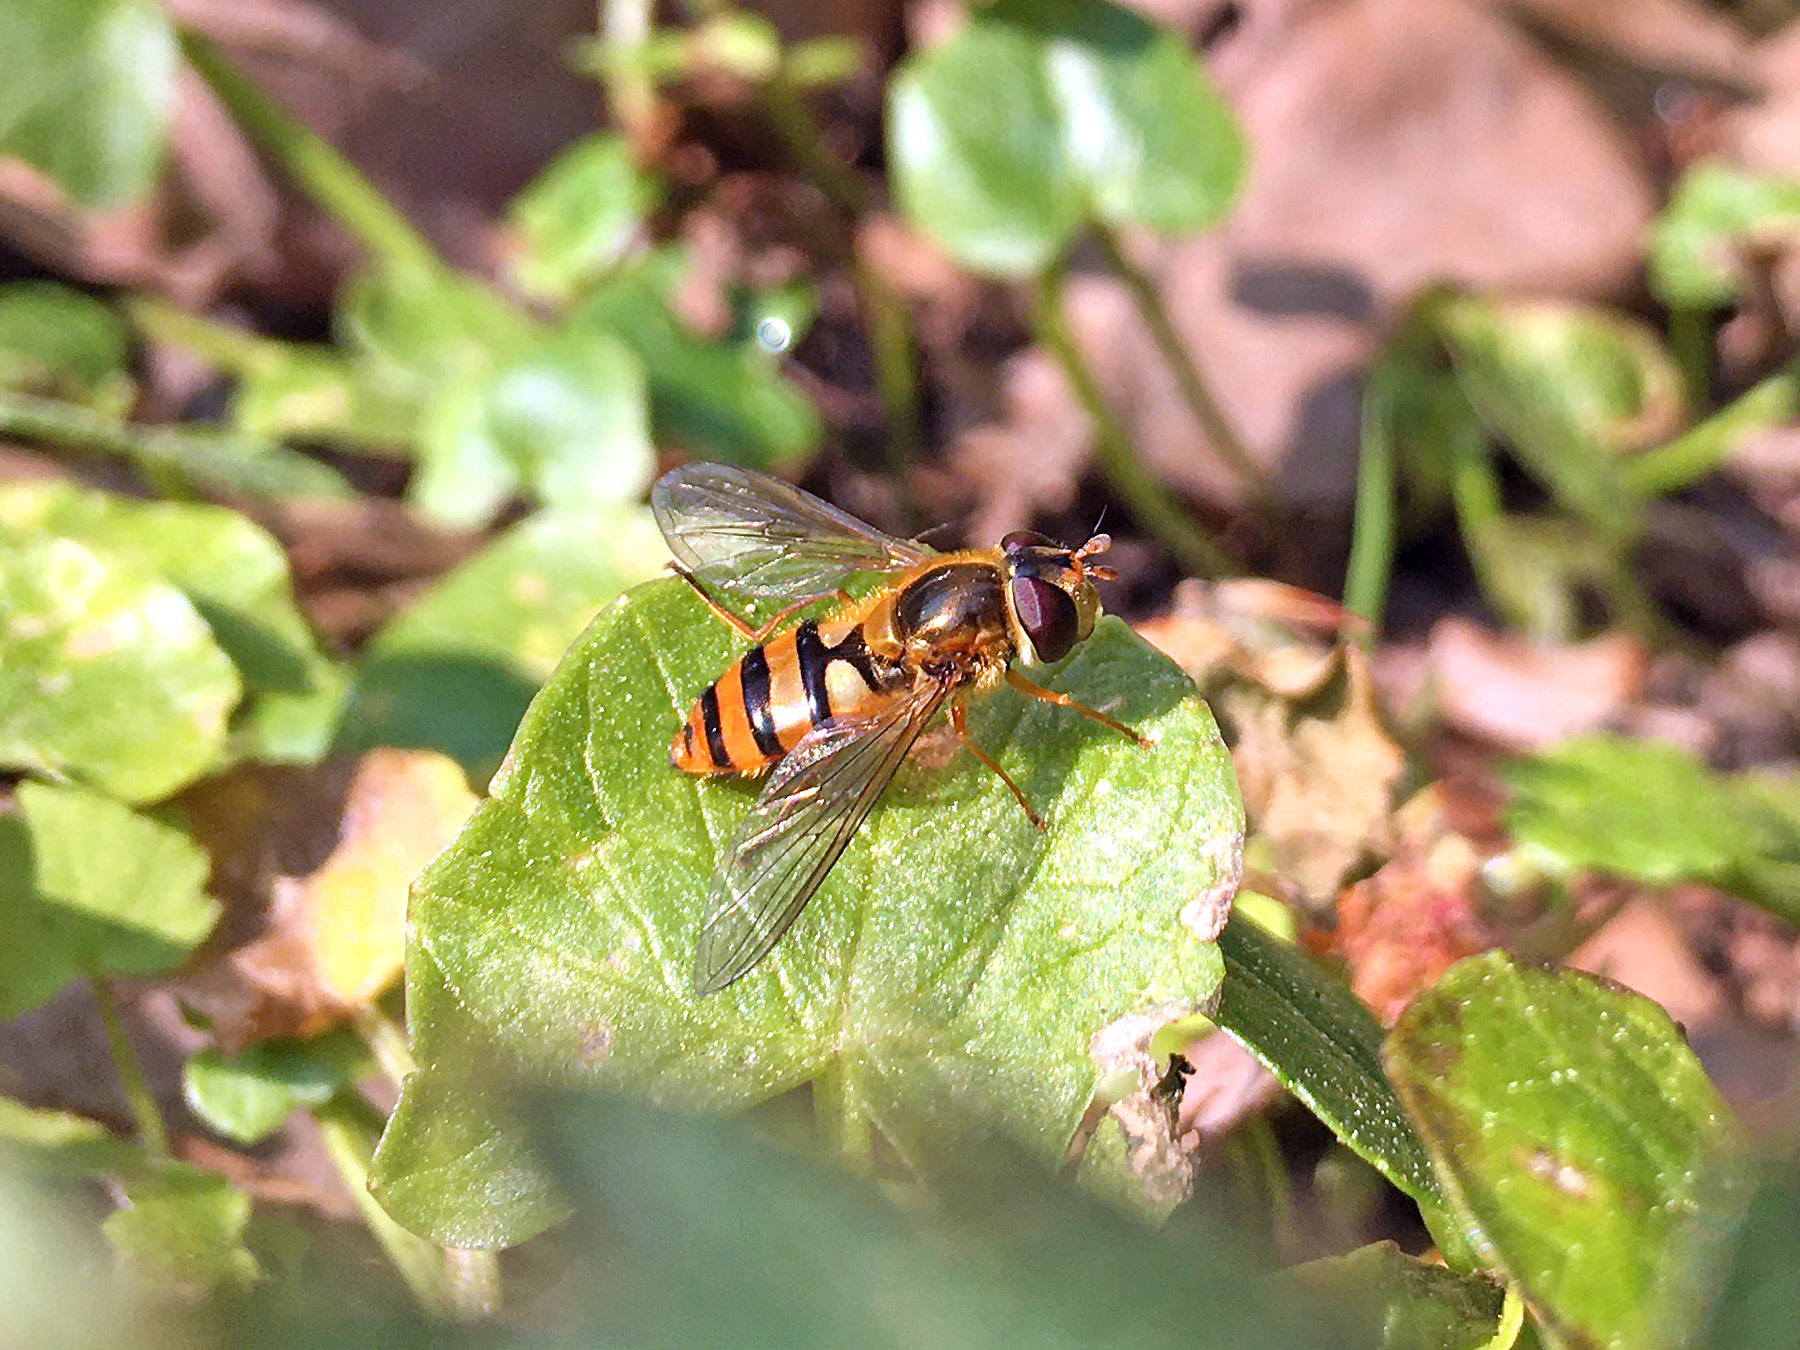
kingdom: Animalia
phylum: Arthropoda
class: Insecta
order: Diptera
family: Syrphidae
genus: Epistrophe
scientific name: Epistrophe nitidicollis
